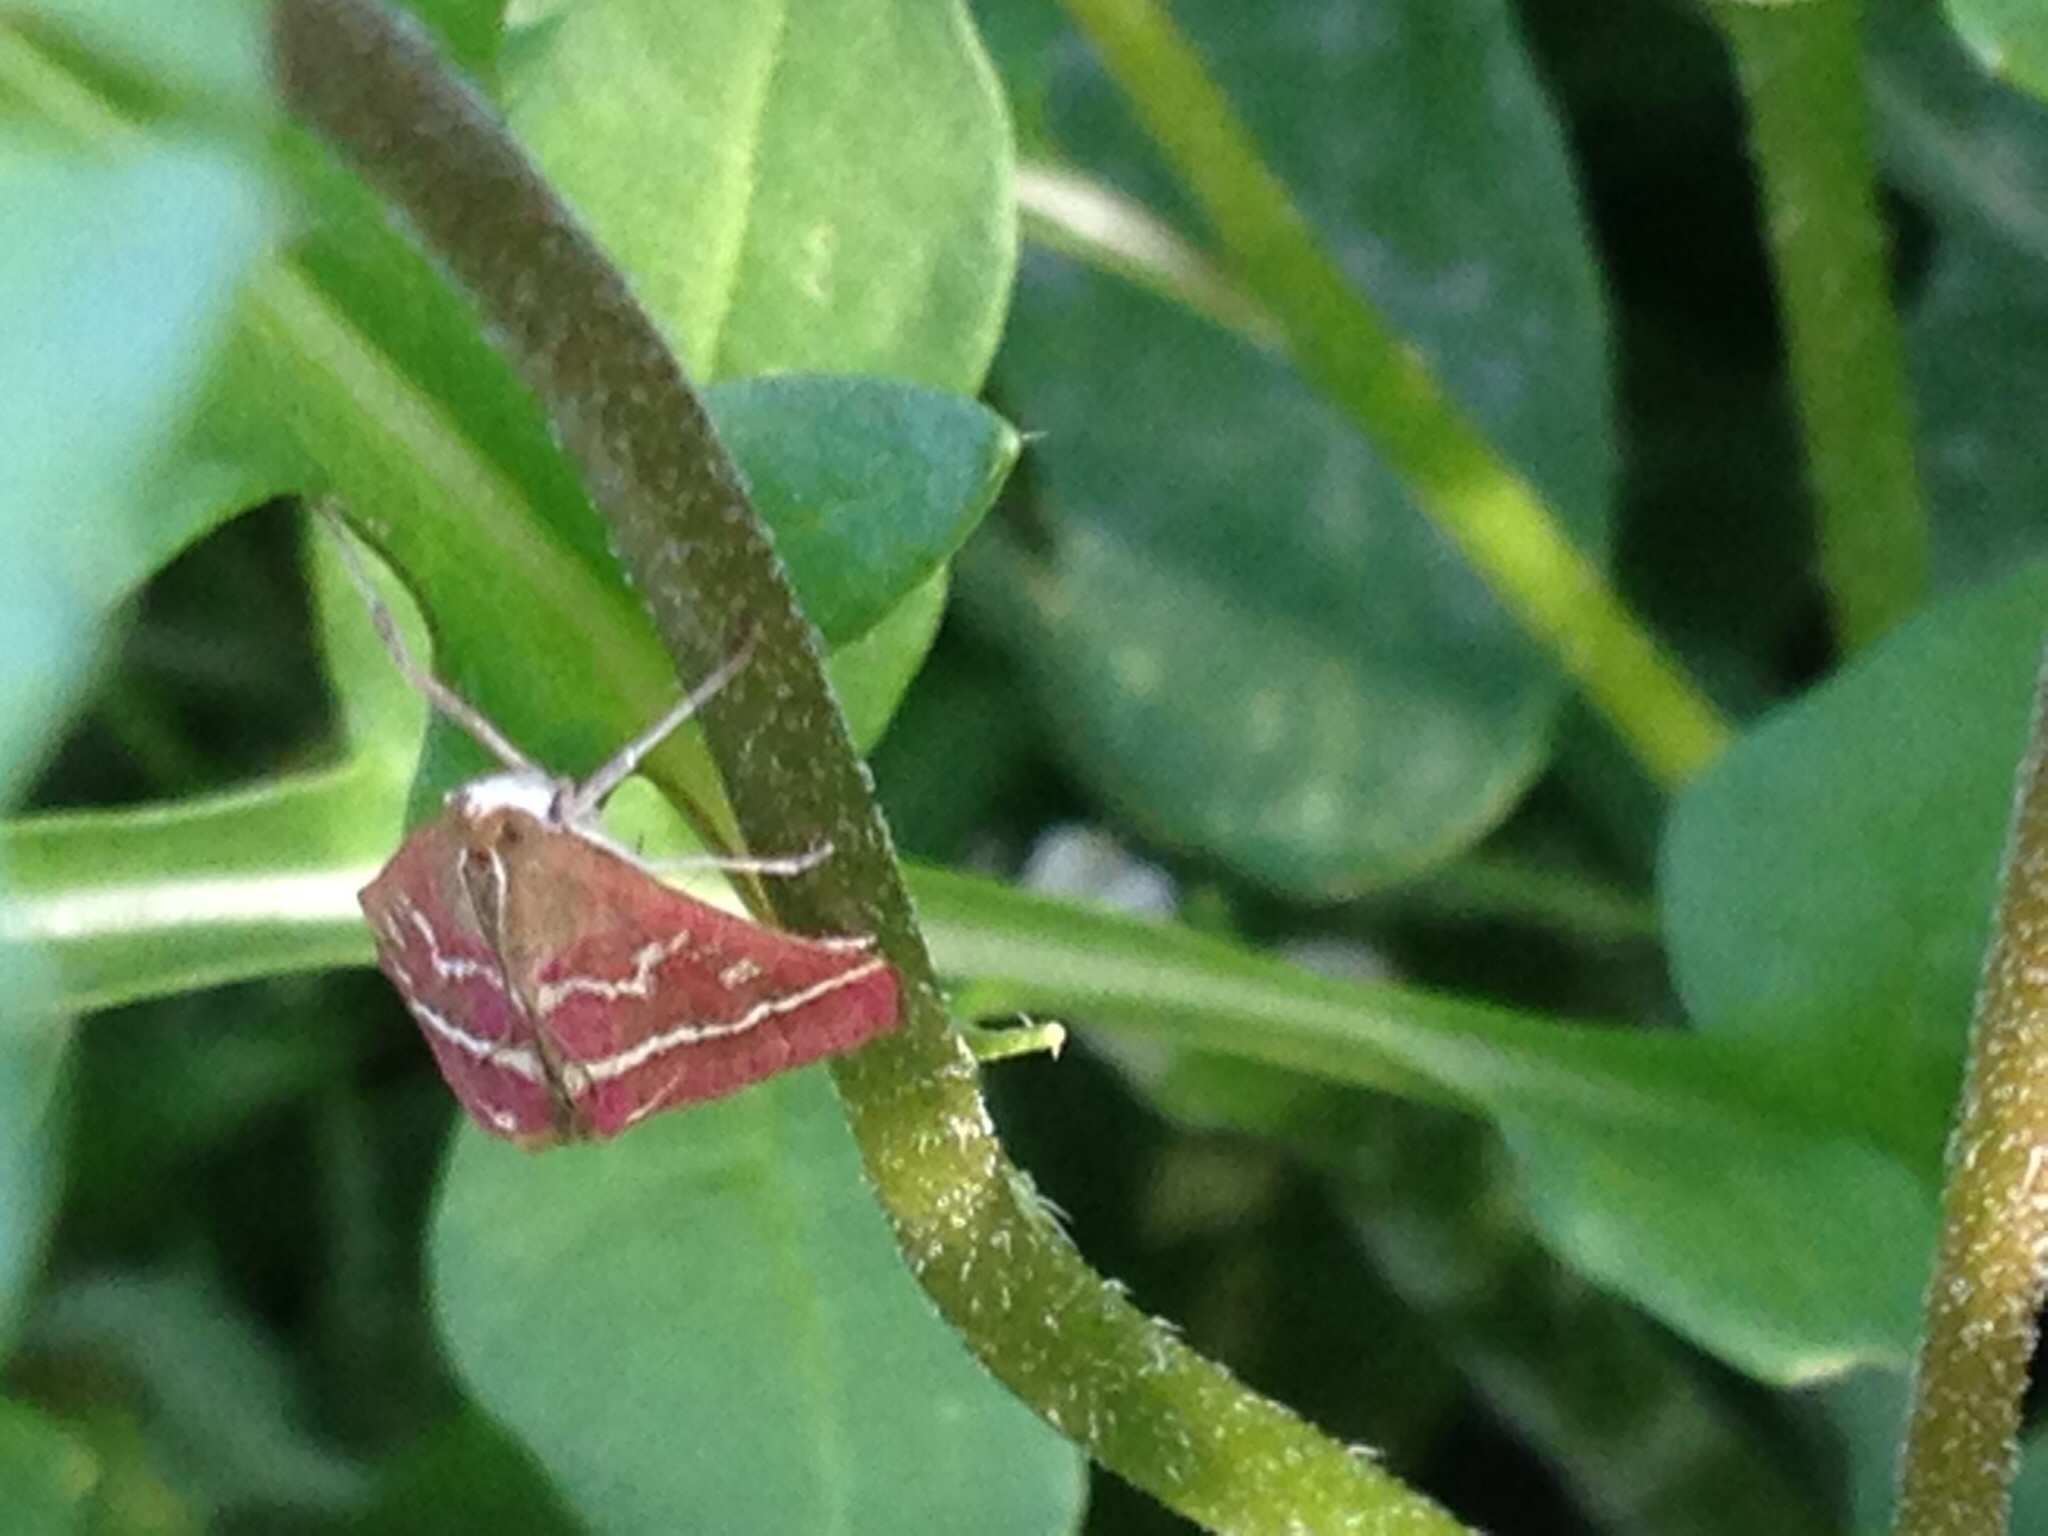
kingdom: Animalia
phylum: Arthropoda
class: Insecta
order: Lepidoptera
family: Crambidae
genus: Pyrausta
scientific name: Pyrausta volupialis
